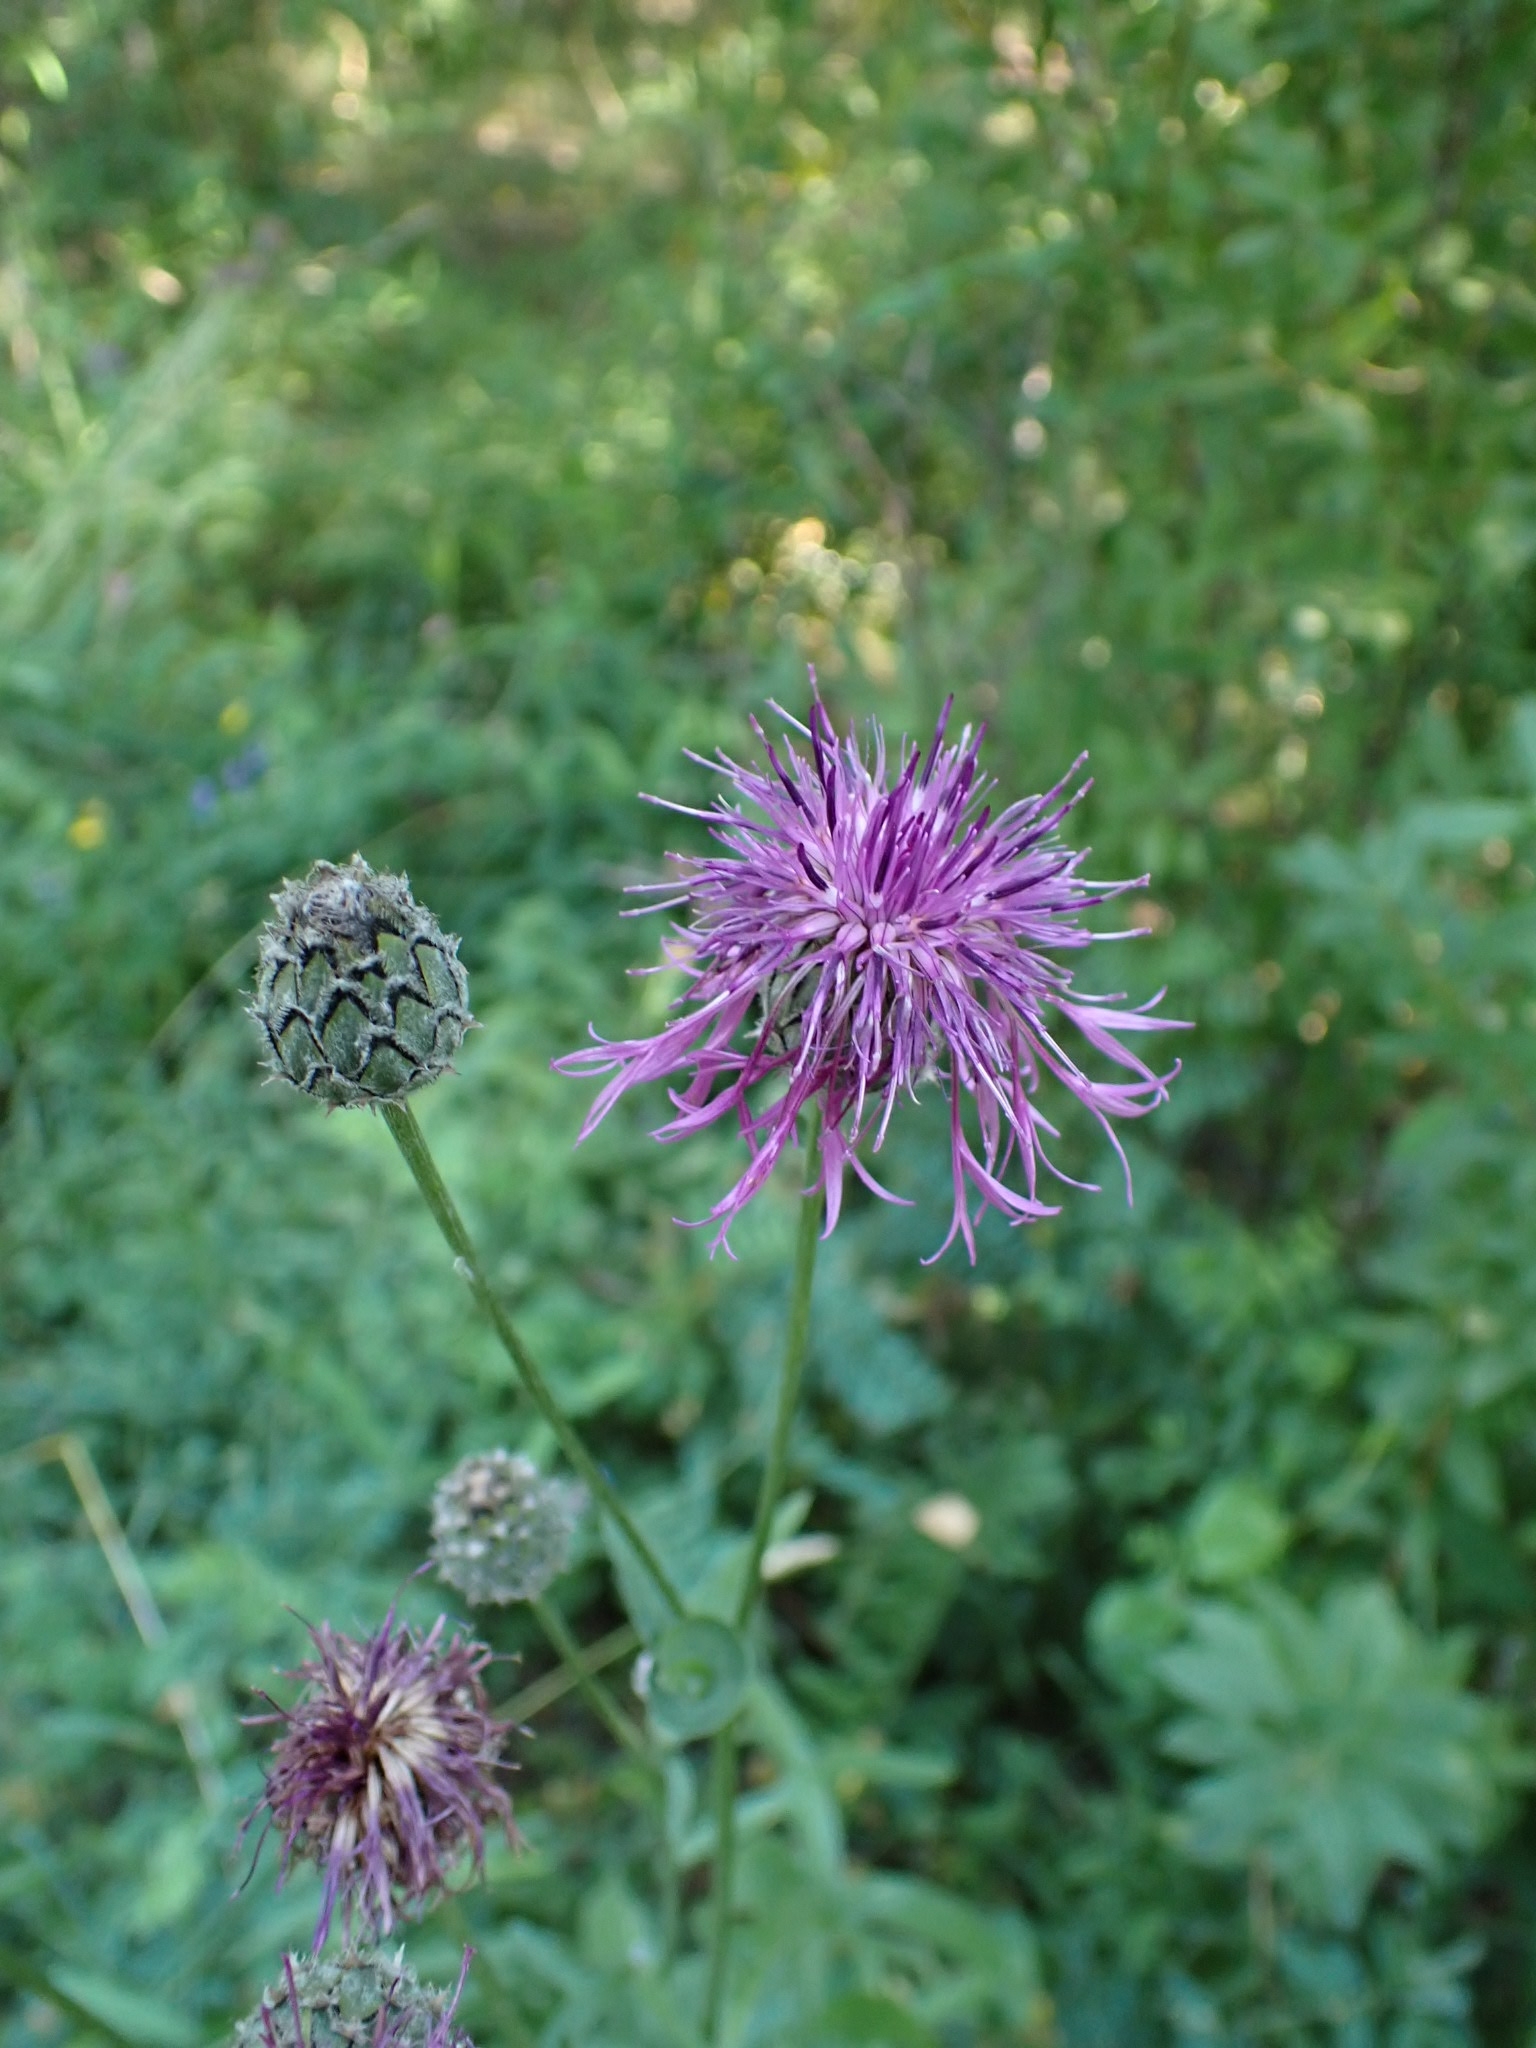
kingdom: Plantae
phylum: Tracheophyta
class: Magnoliopsida
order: Asterales
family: Asteraceae
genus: Centaurea
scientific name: Centaurea scabiosa
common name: Greater knapweed
